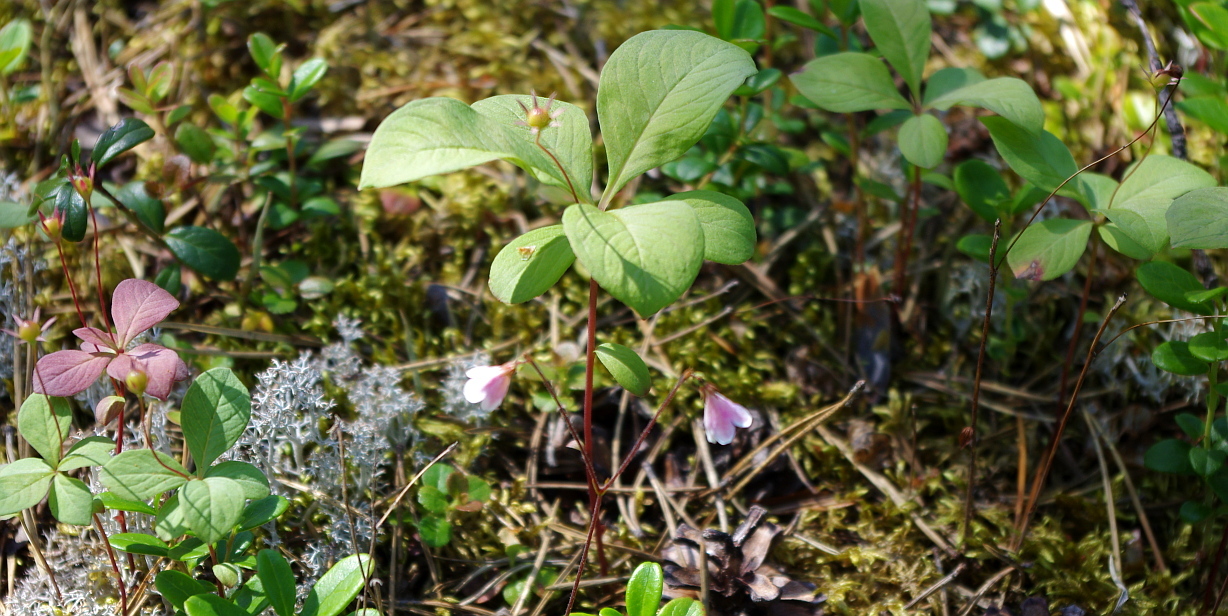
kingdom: Plantae
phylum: Tracheophyta
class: Magnoliopsida
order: Ericales
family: Primulaceae
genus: Lysimachia
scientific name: Lysimachia europaea
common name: Arctic starflower
